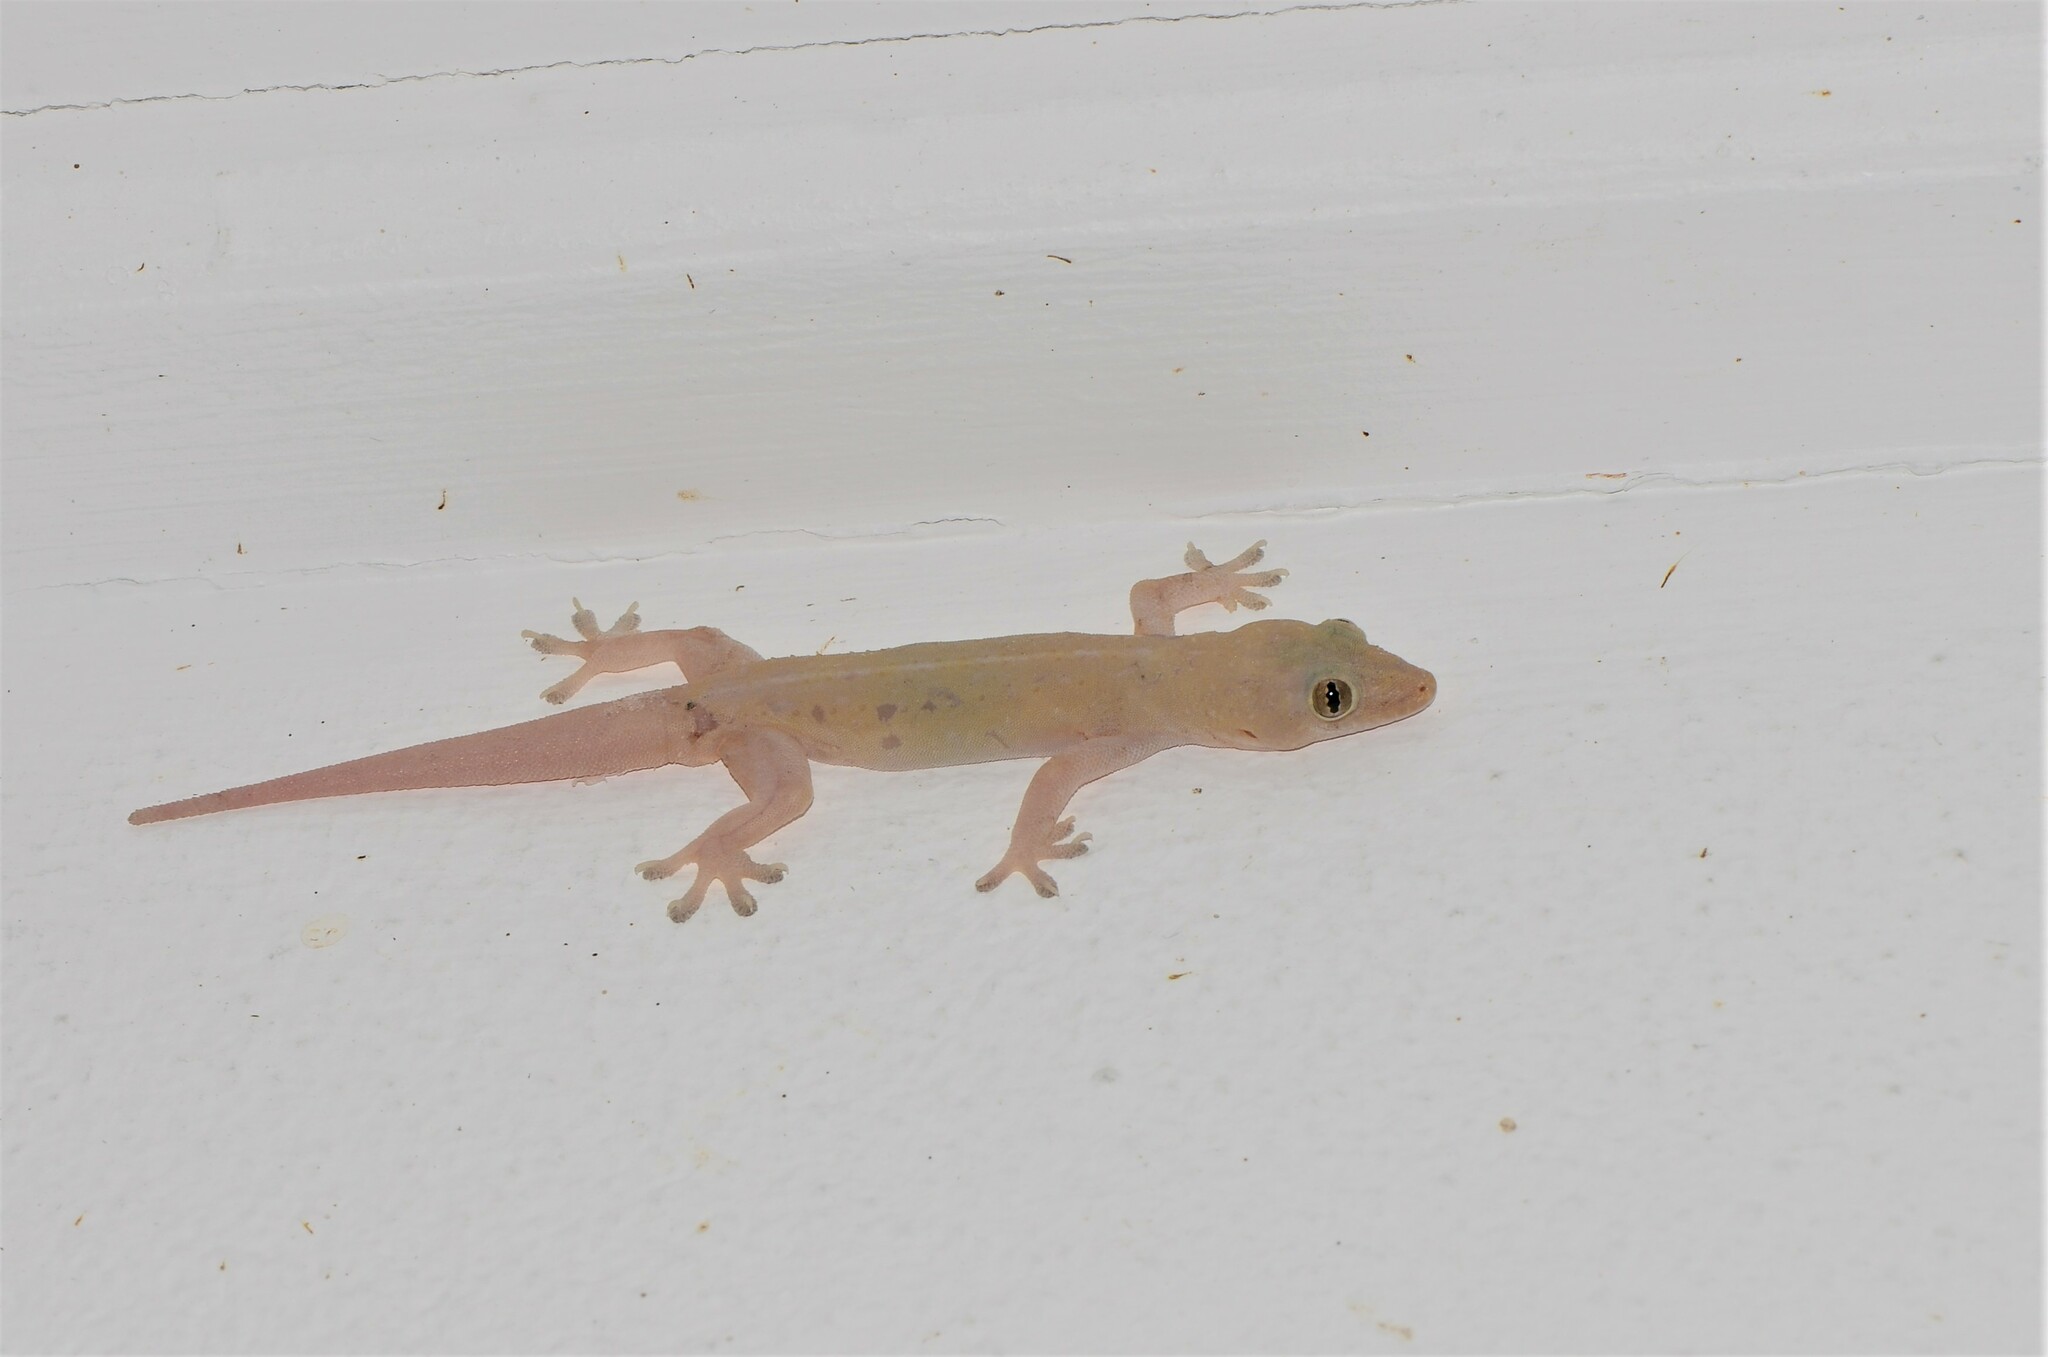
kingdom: Animalia
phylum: Chordata
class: Squamata
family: Gekkonidae
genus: Hemidactylus
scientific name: Hemidactylus frenatus
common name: Common house gecko
